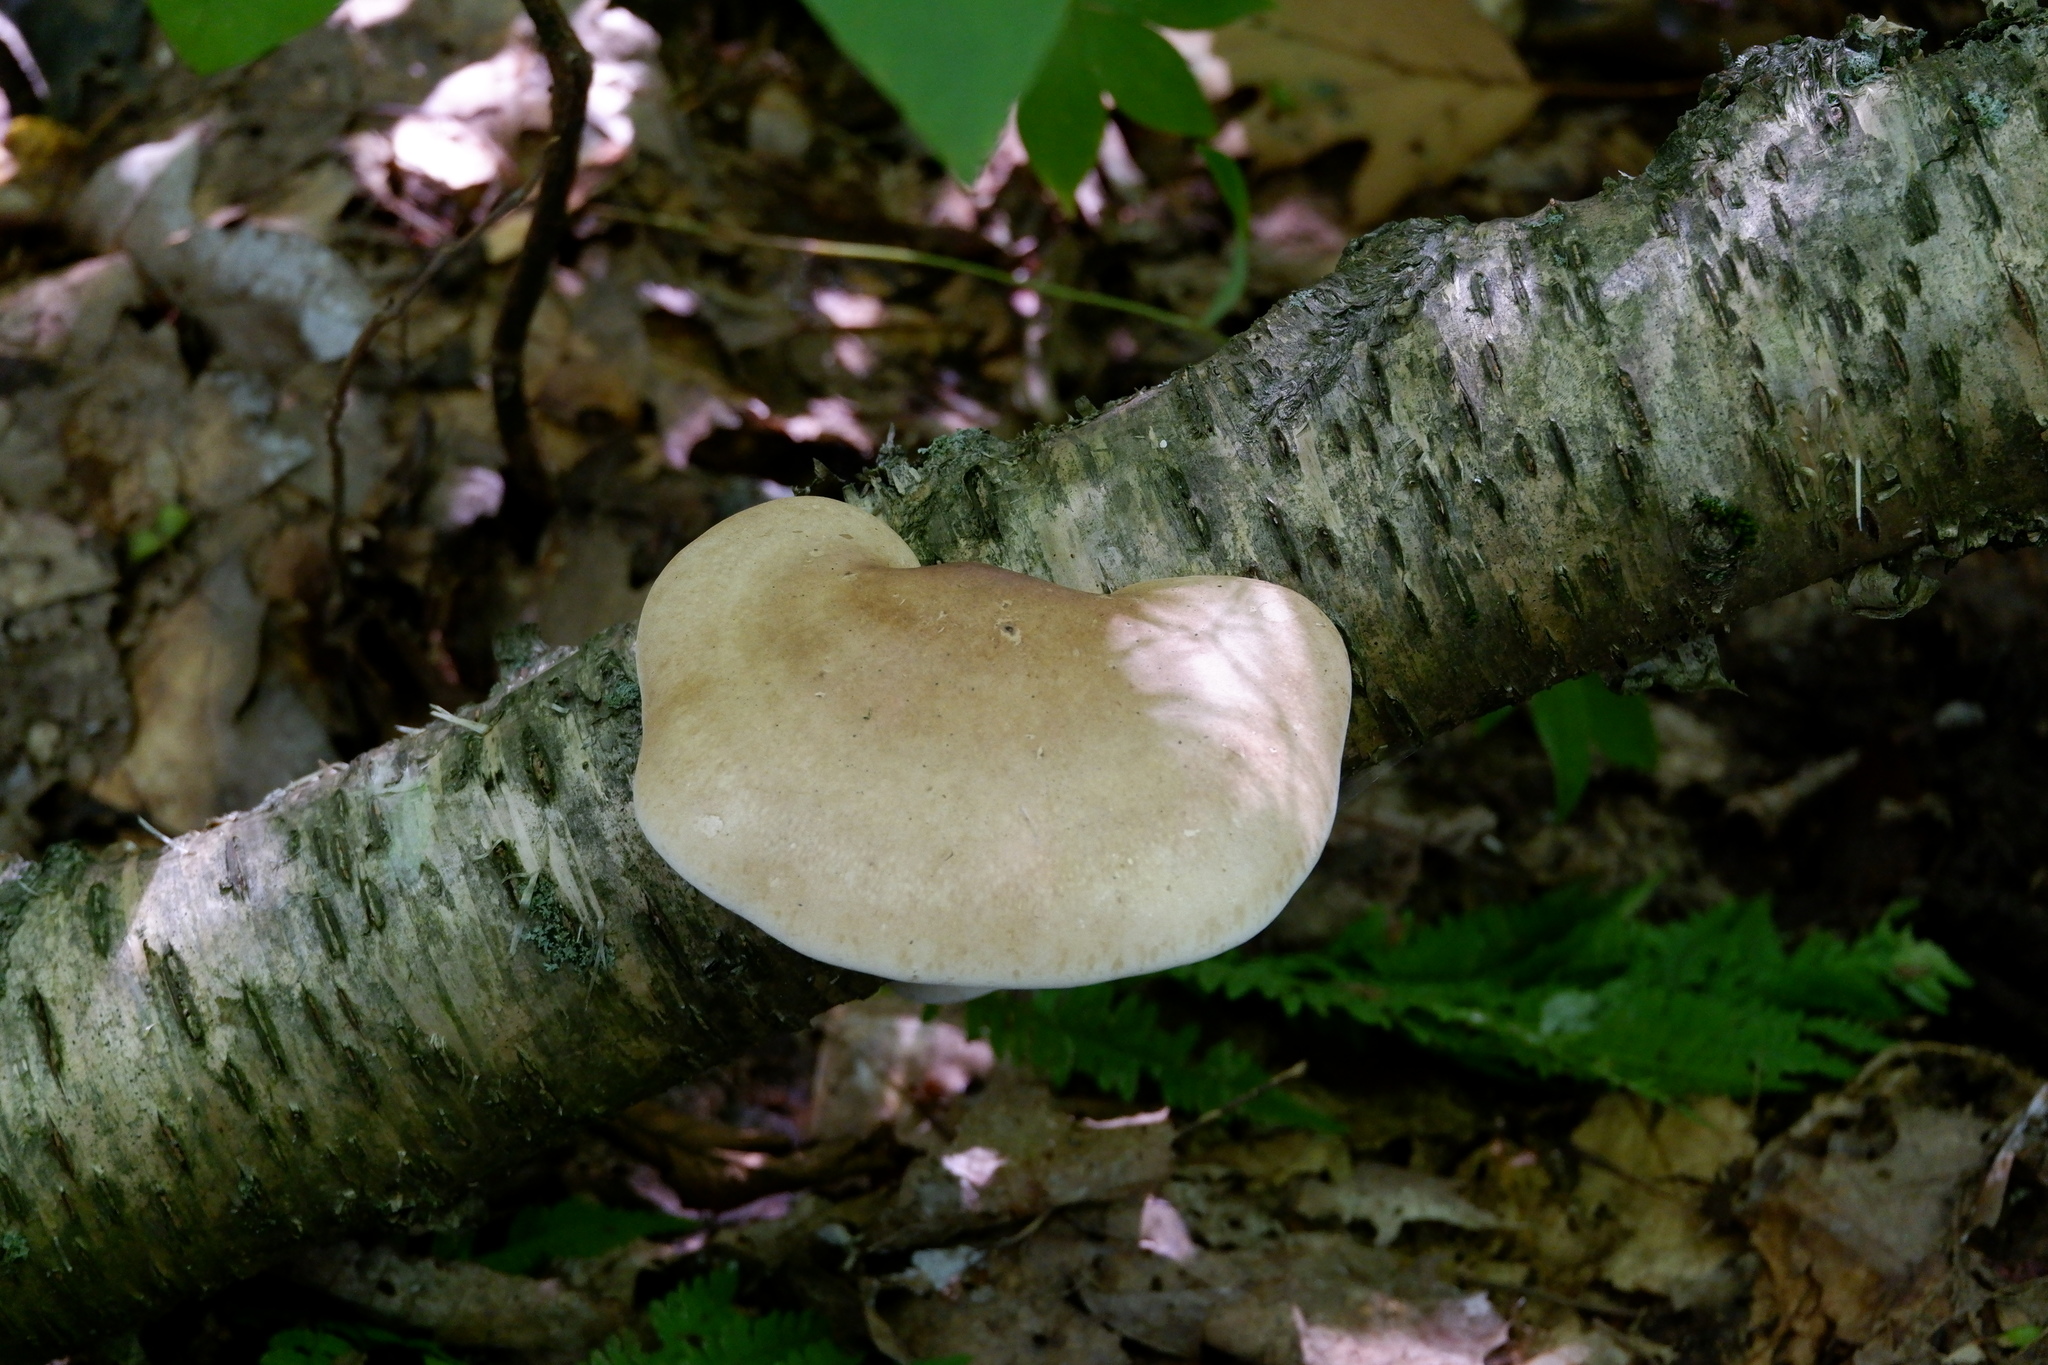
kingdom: Fungi
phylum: Basidiomycota
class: Agaricomycetes
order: Polyporales
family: Fomitopsidaceae
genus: Fomitopsis
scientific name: Fomitopsis betulina
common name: Birch polypore
